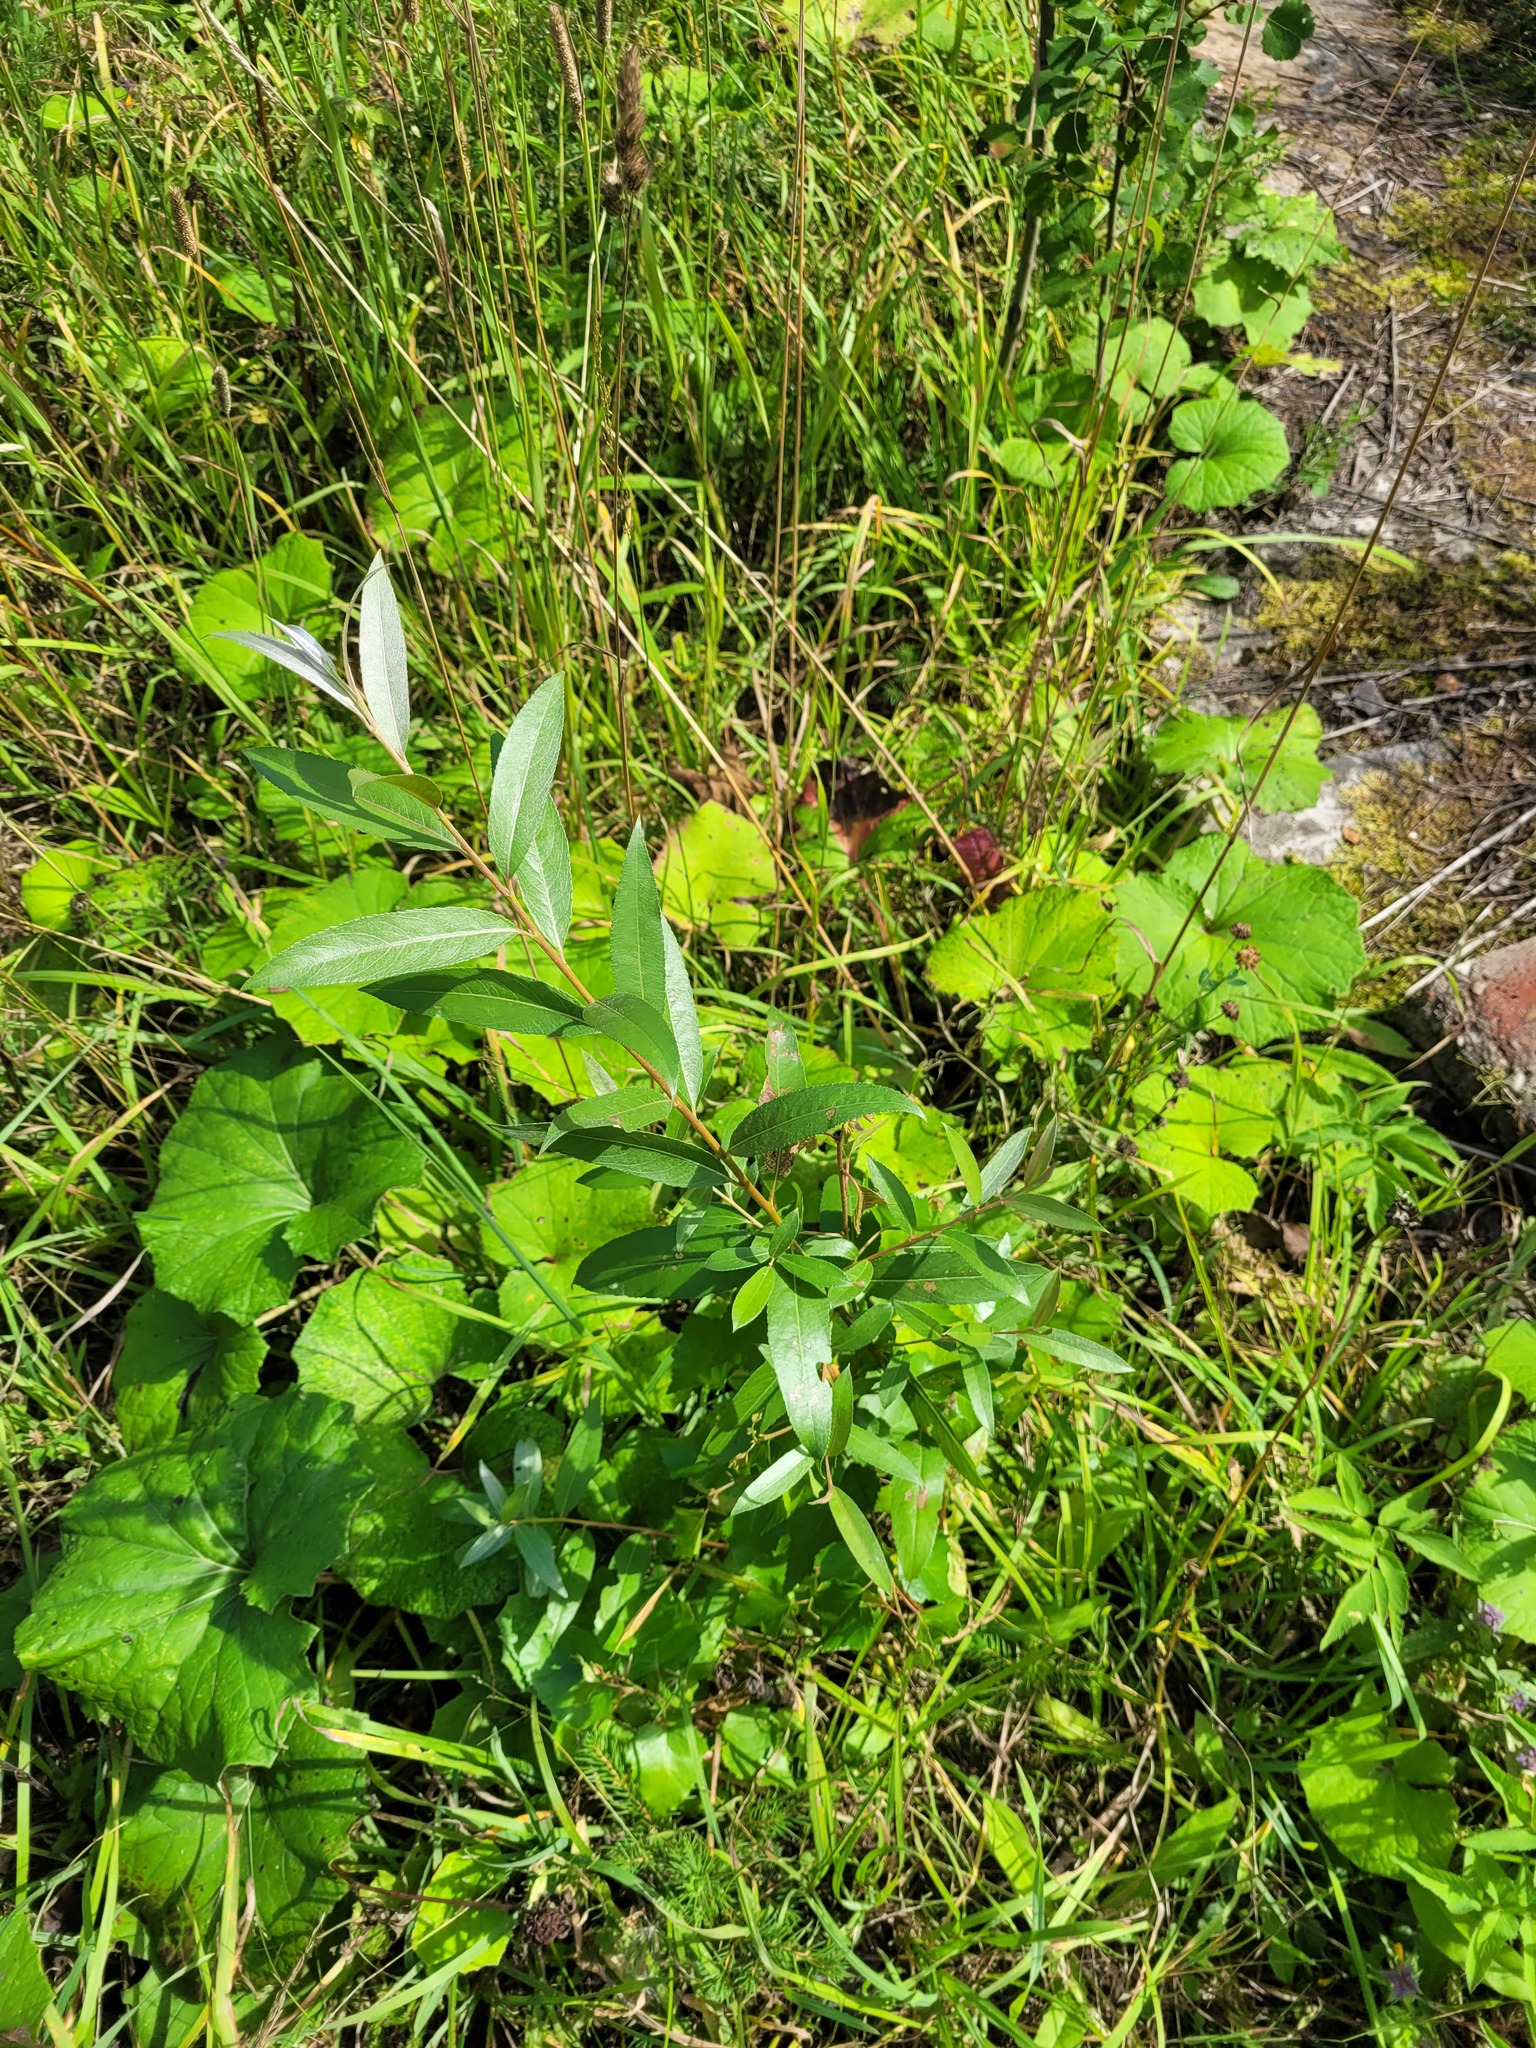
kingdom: Plantae
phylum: Tracheophyta
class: Magnoliopsida
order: Malpighiales
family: Salicaceae
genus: Salix
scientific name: Salix alba
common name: White willow
